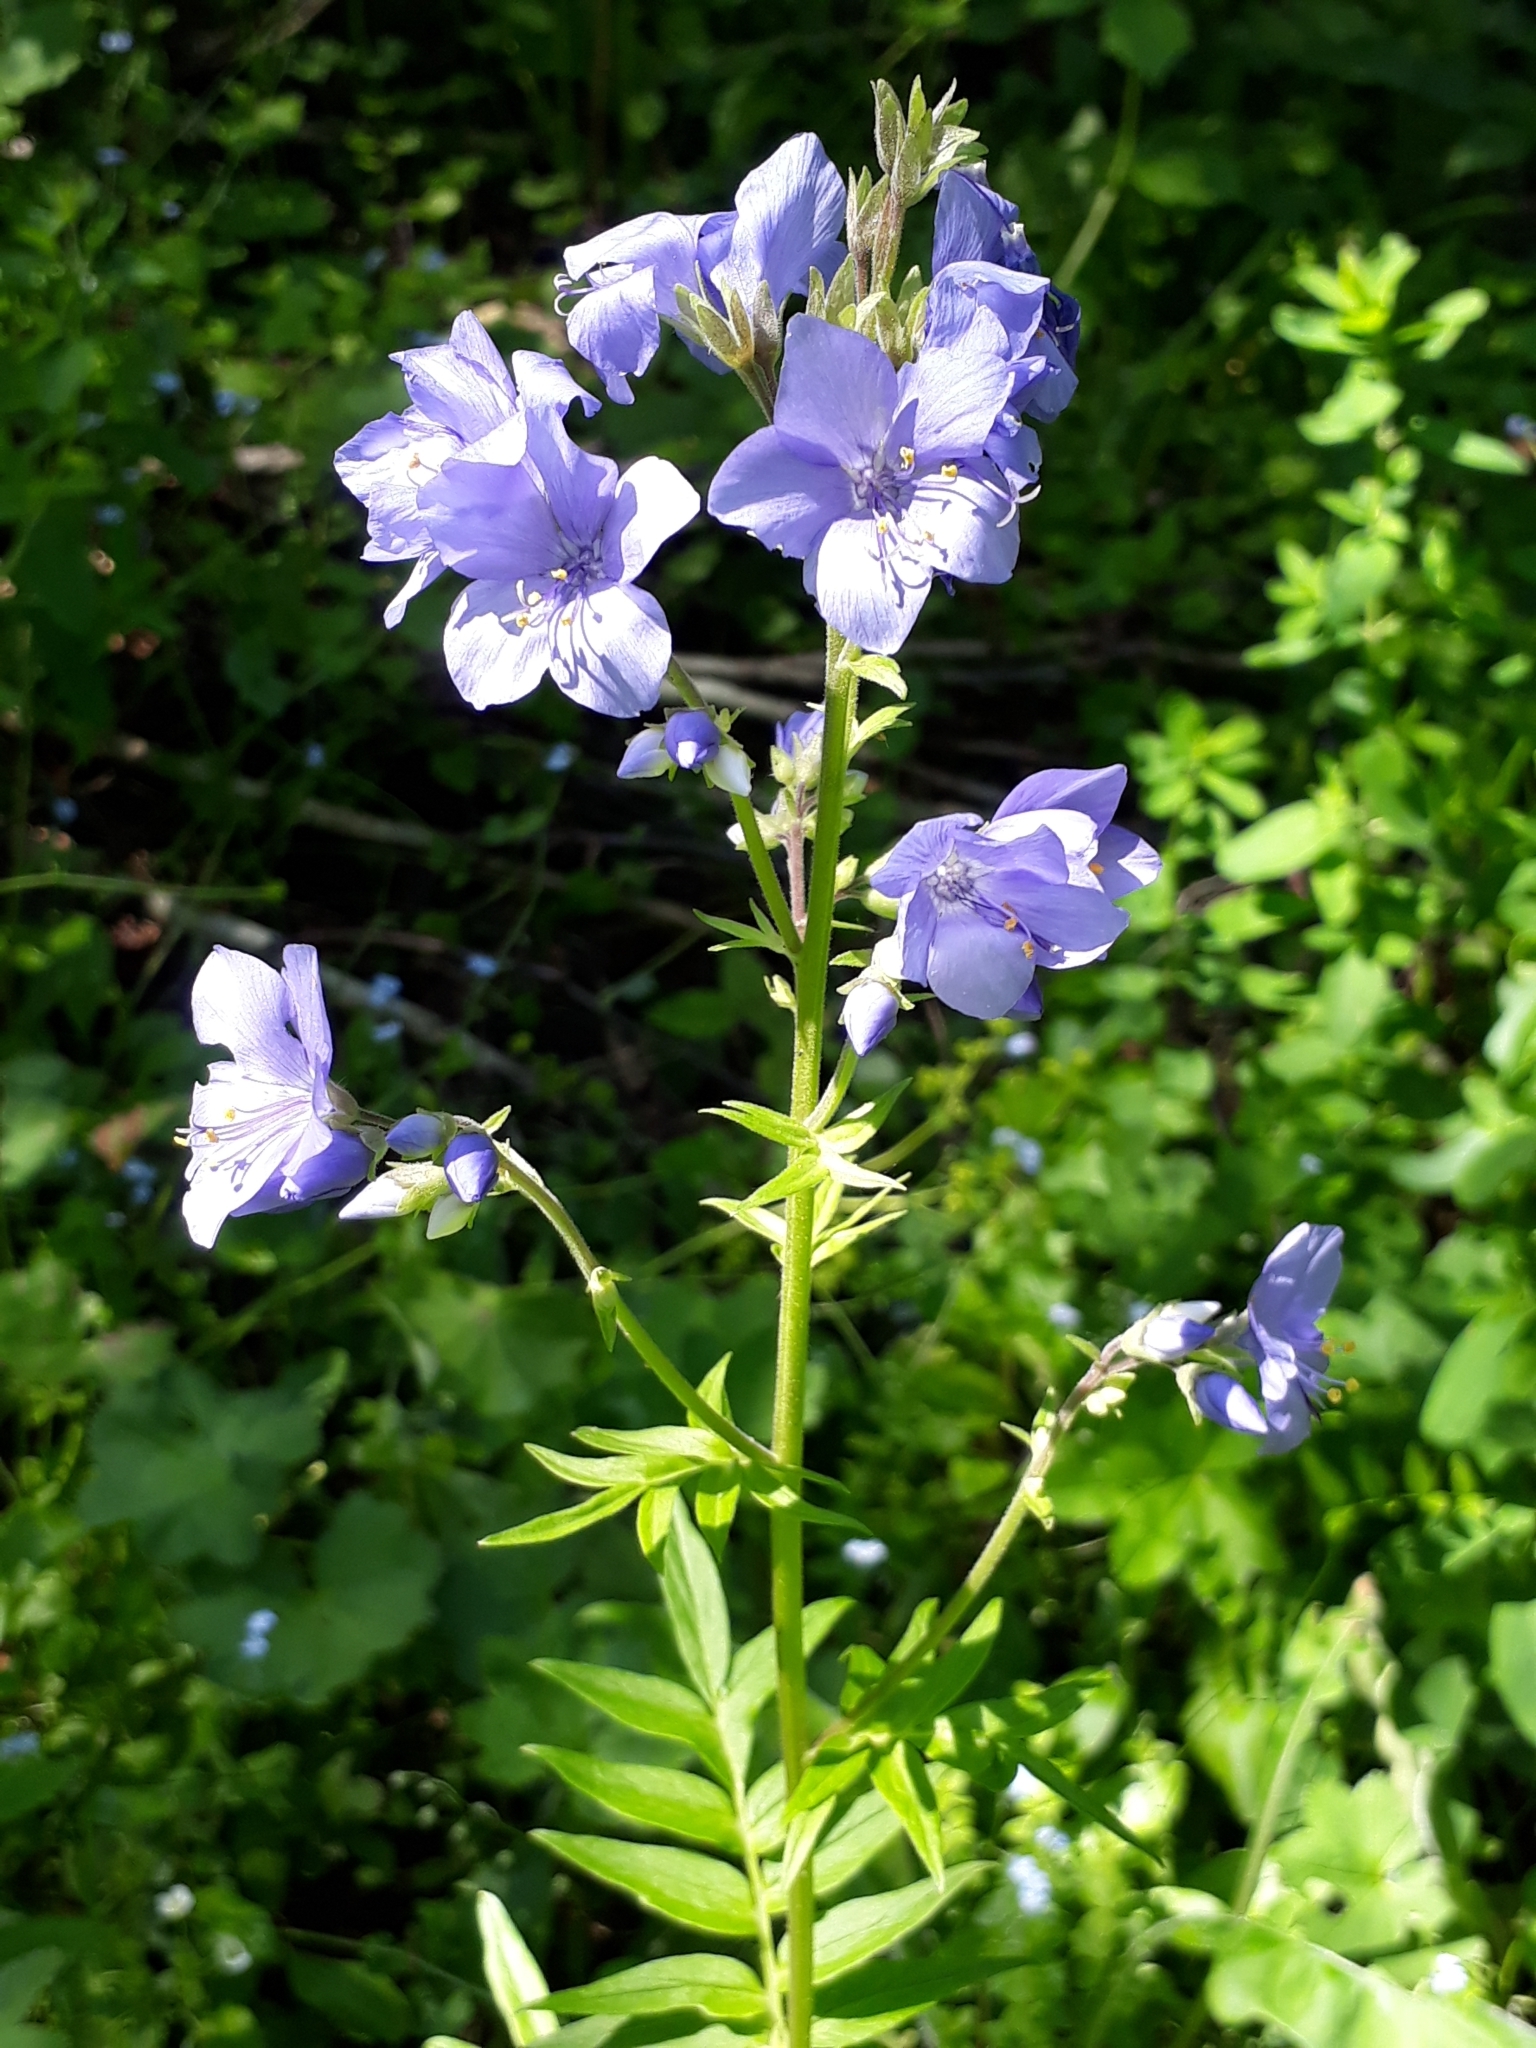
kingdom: Plantae
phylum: Tracheophyta
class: Magnoliopsida
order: Ericales
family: Polemoniaceae
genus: Polemonium
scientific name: Polemonium caeruleum
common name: Jacob's-ladder
